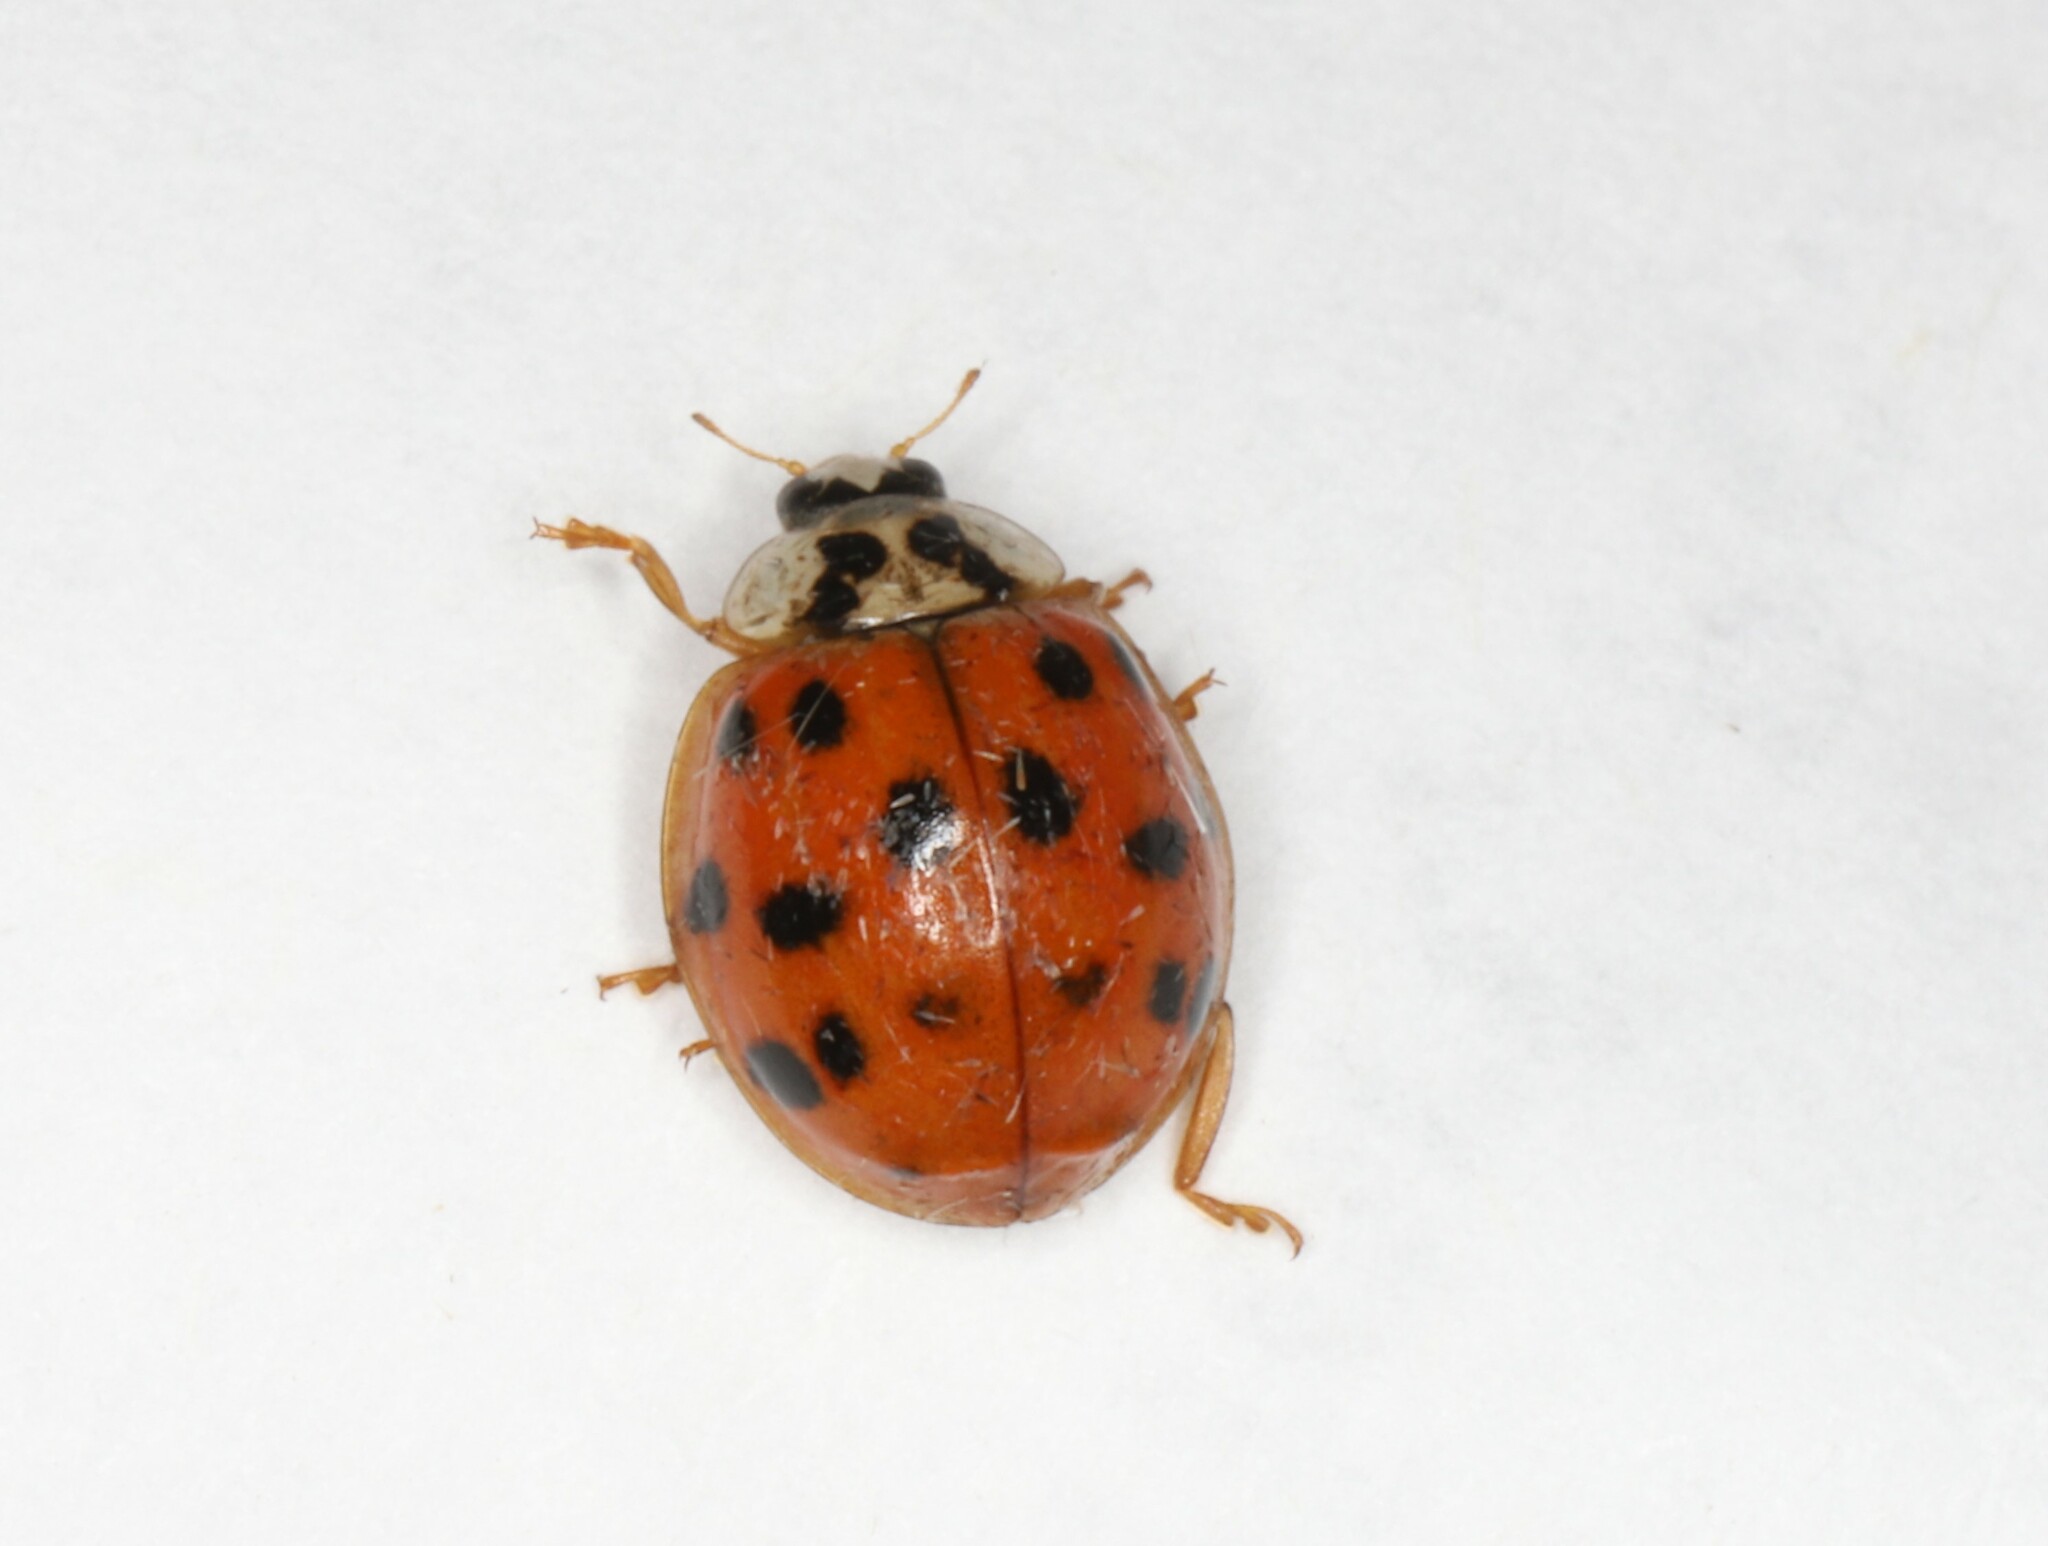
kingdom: Animalia
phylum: Arthropoda
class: Insecta
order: Coleoptera
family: Coccinellidae
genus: Harmonia
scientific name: Harmonia axyridis
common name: Harlequin ladybird
